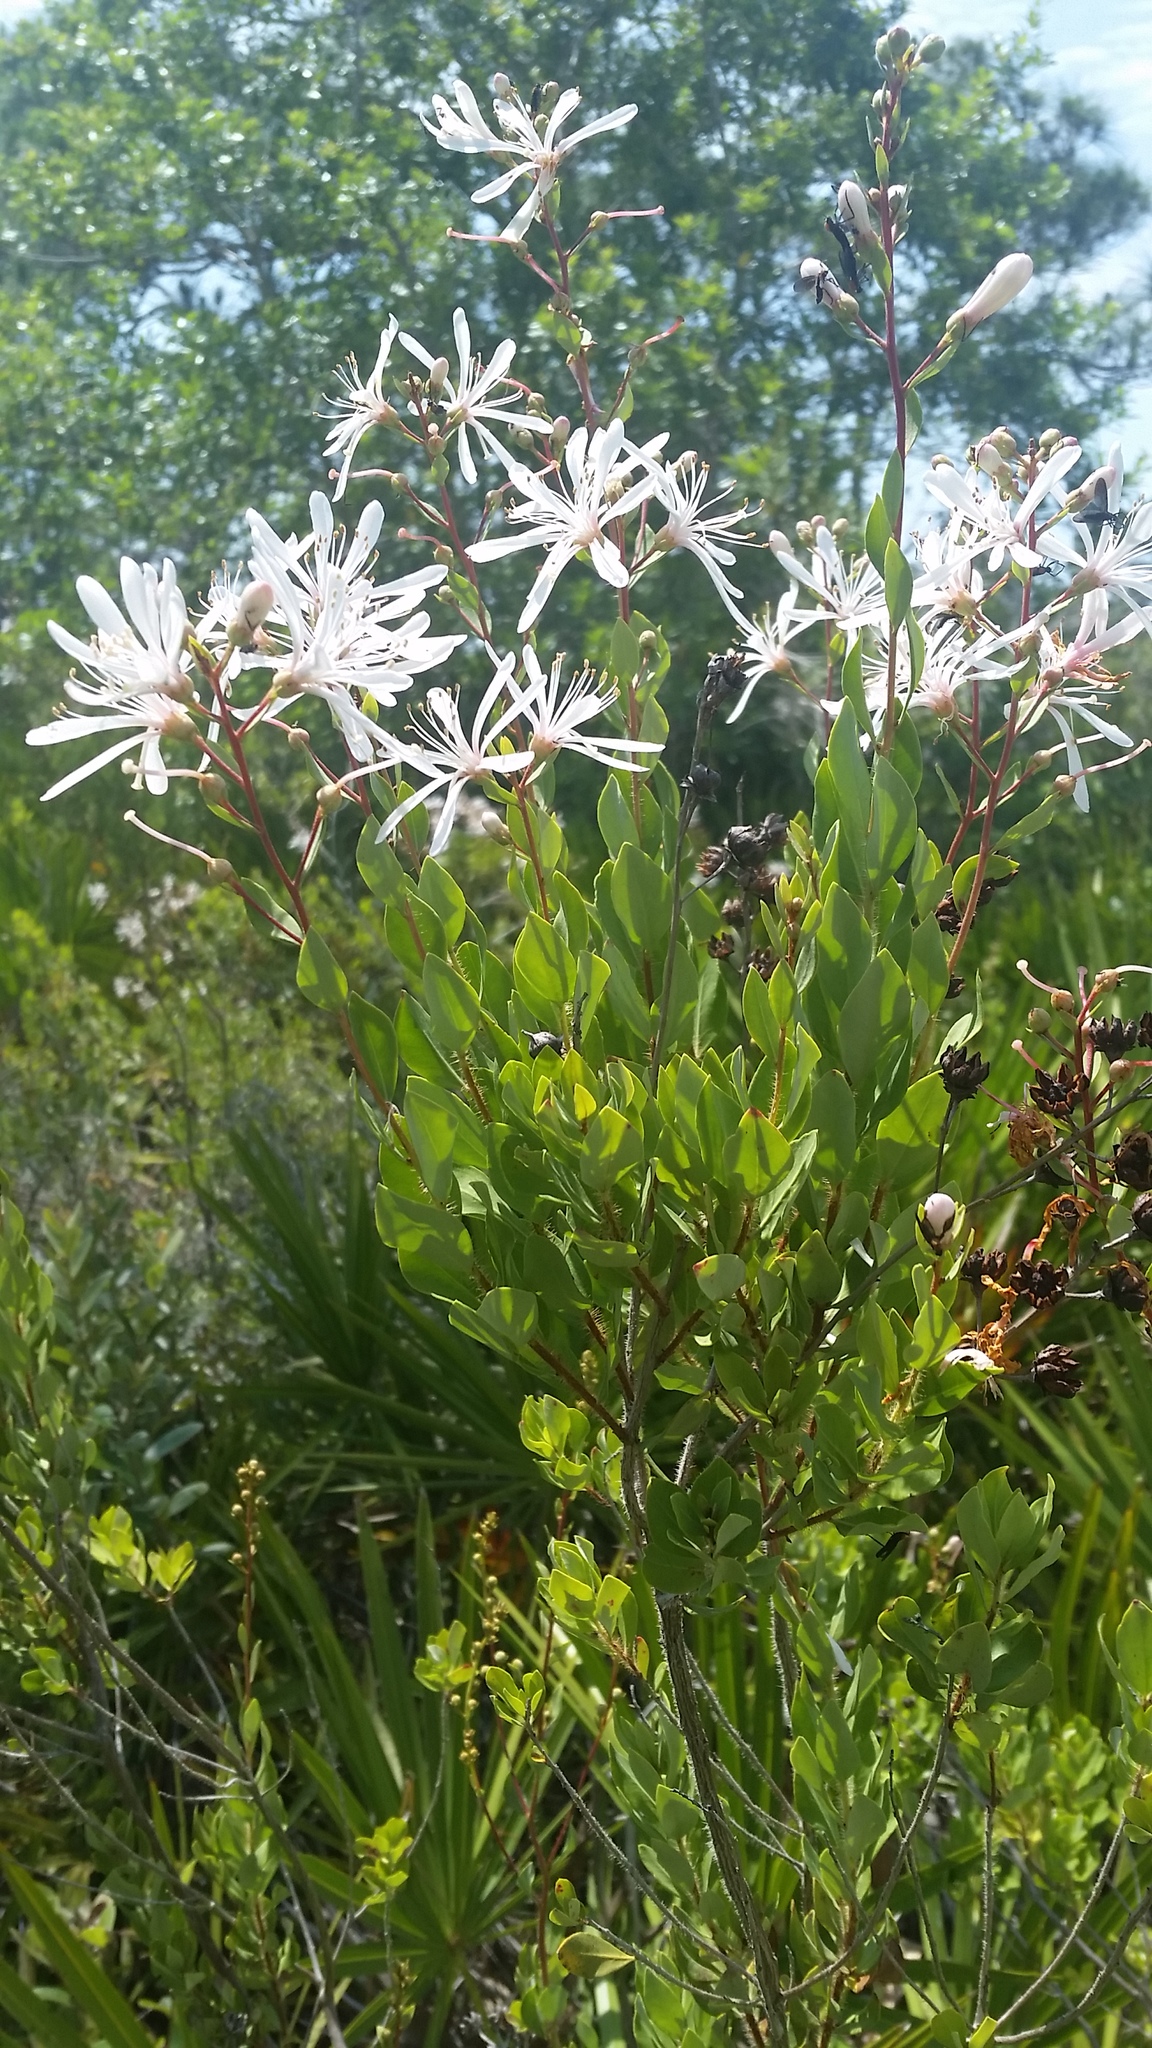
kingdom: Plantae
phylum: Tracheophyta
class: Magnoliopsida
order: Ericales
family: Ericaceae
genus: Bejaria
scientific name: Bejaria racemosa
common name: Tarflower
